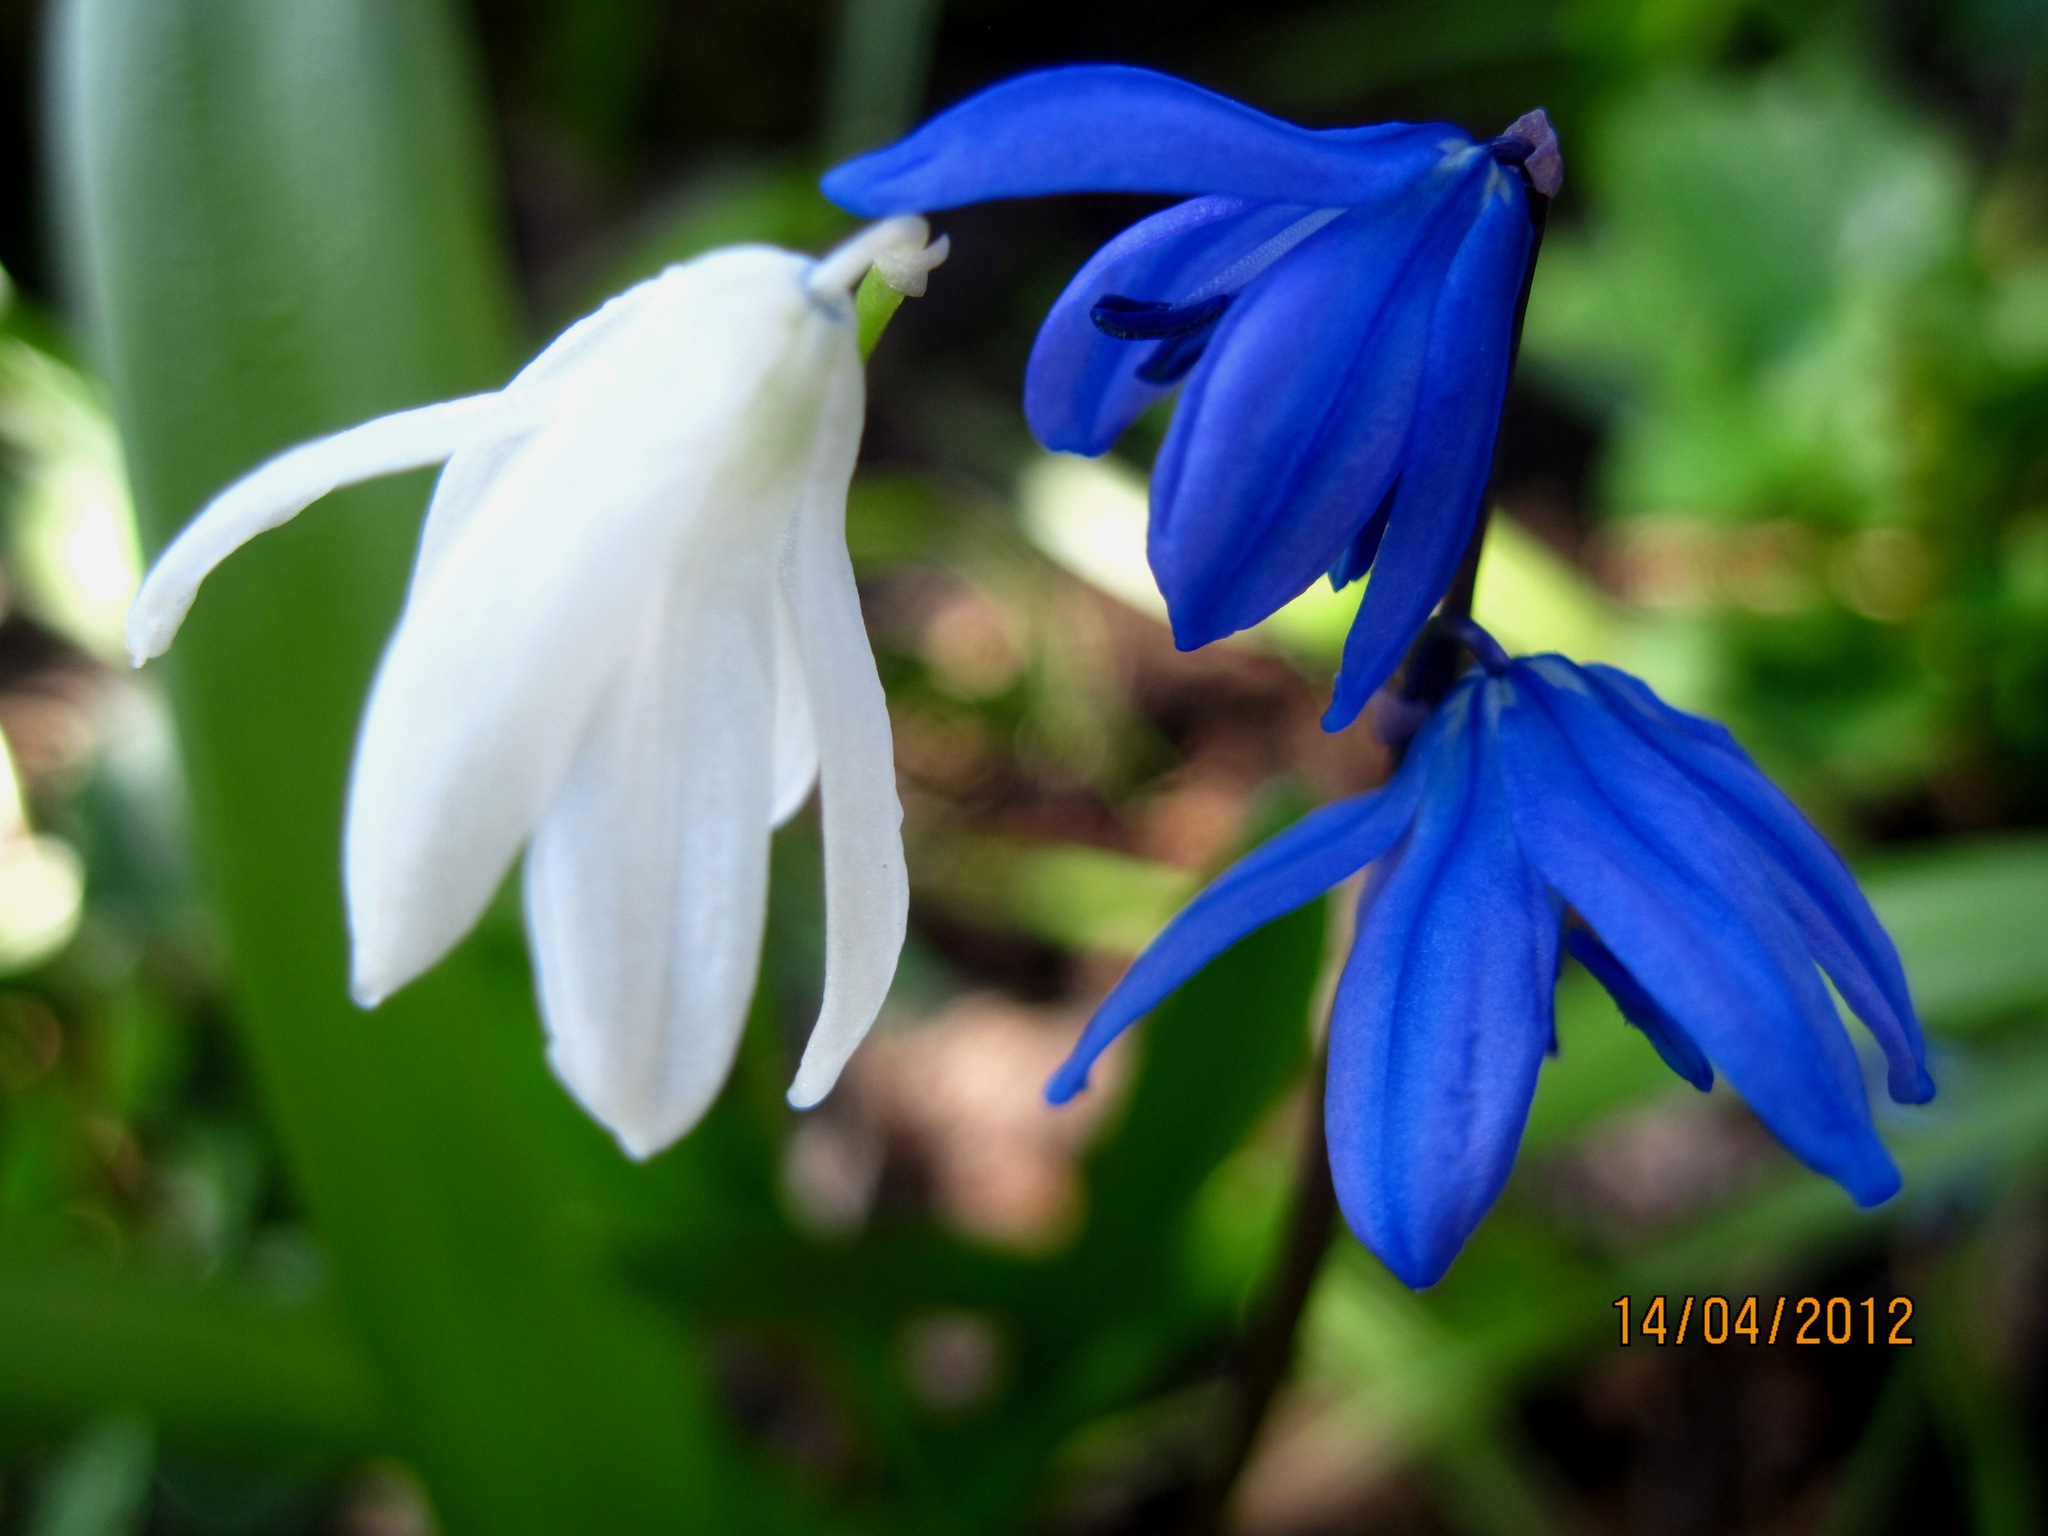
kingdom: Plantae
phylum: Tracheophyta
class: Liliopsida
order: Asparagales
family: Asparagaceae
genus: Scilla
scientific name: Scilla siberica
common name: Siberian squill
